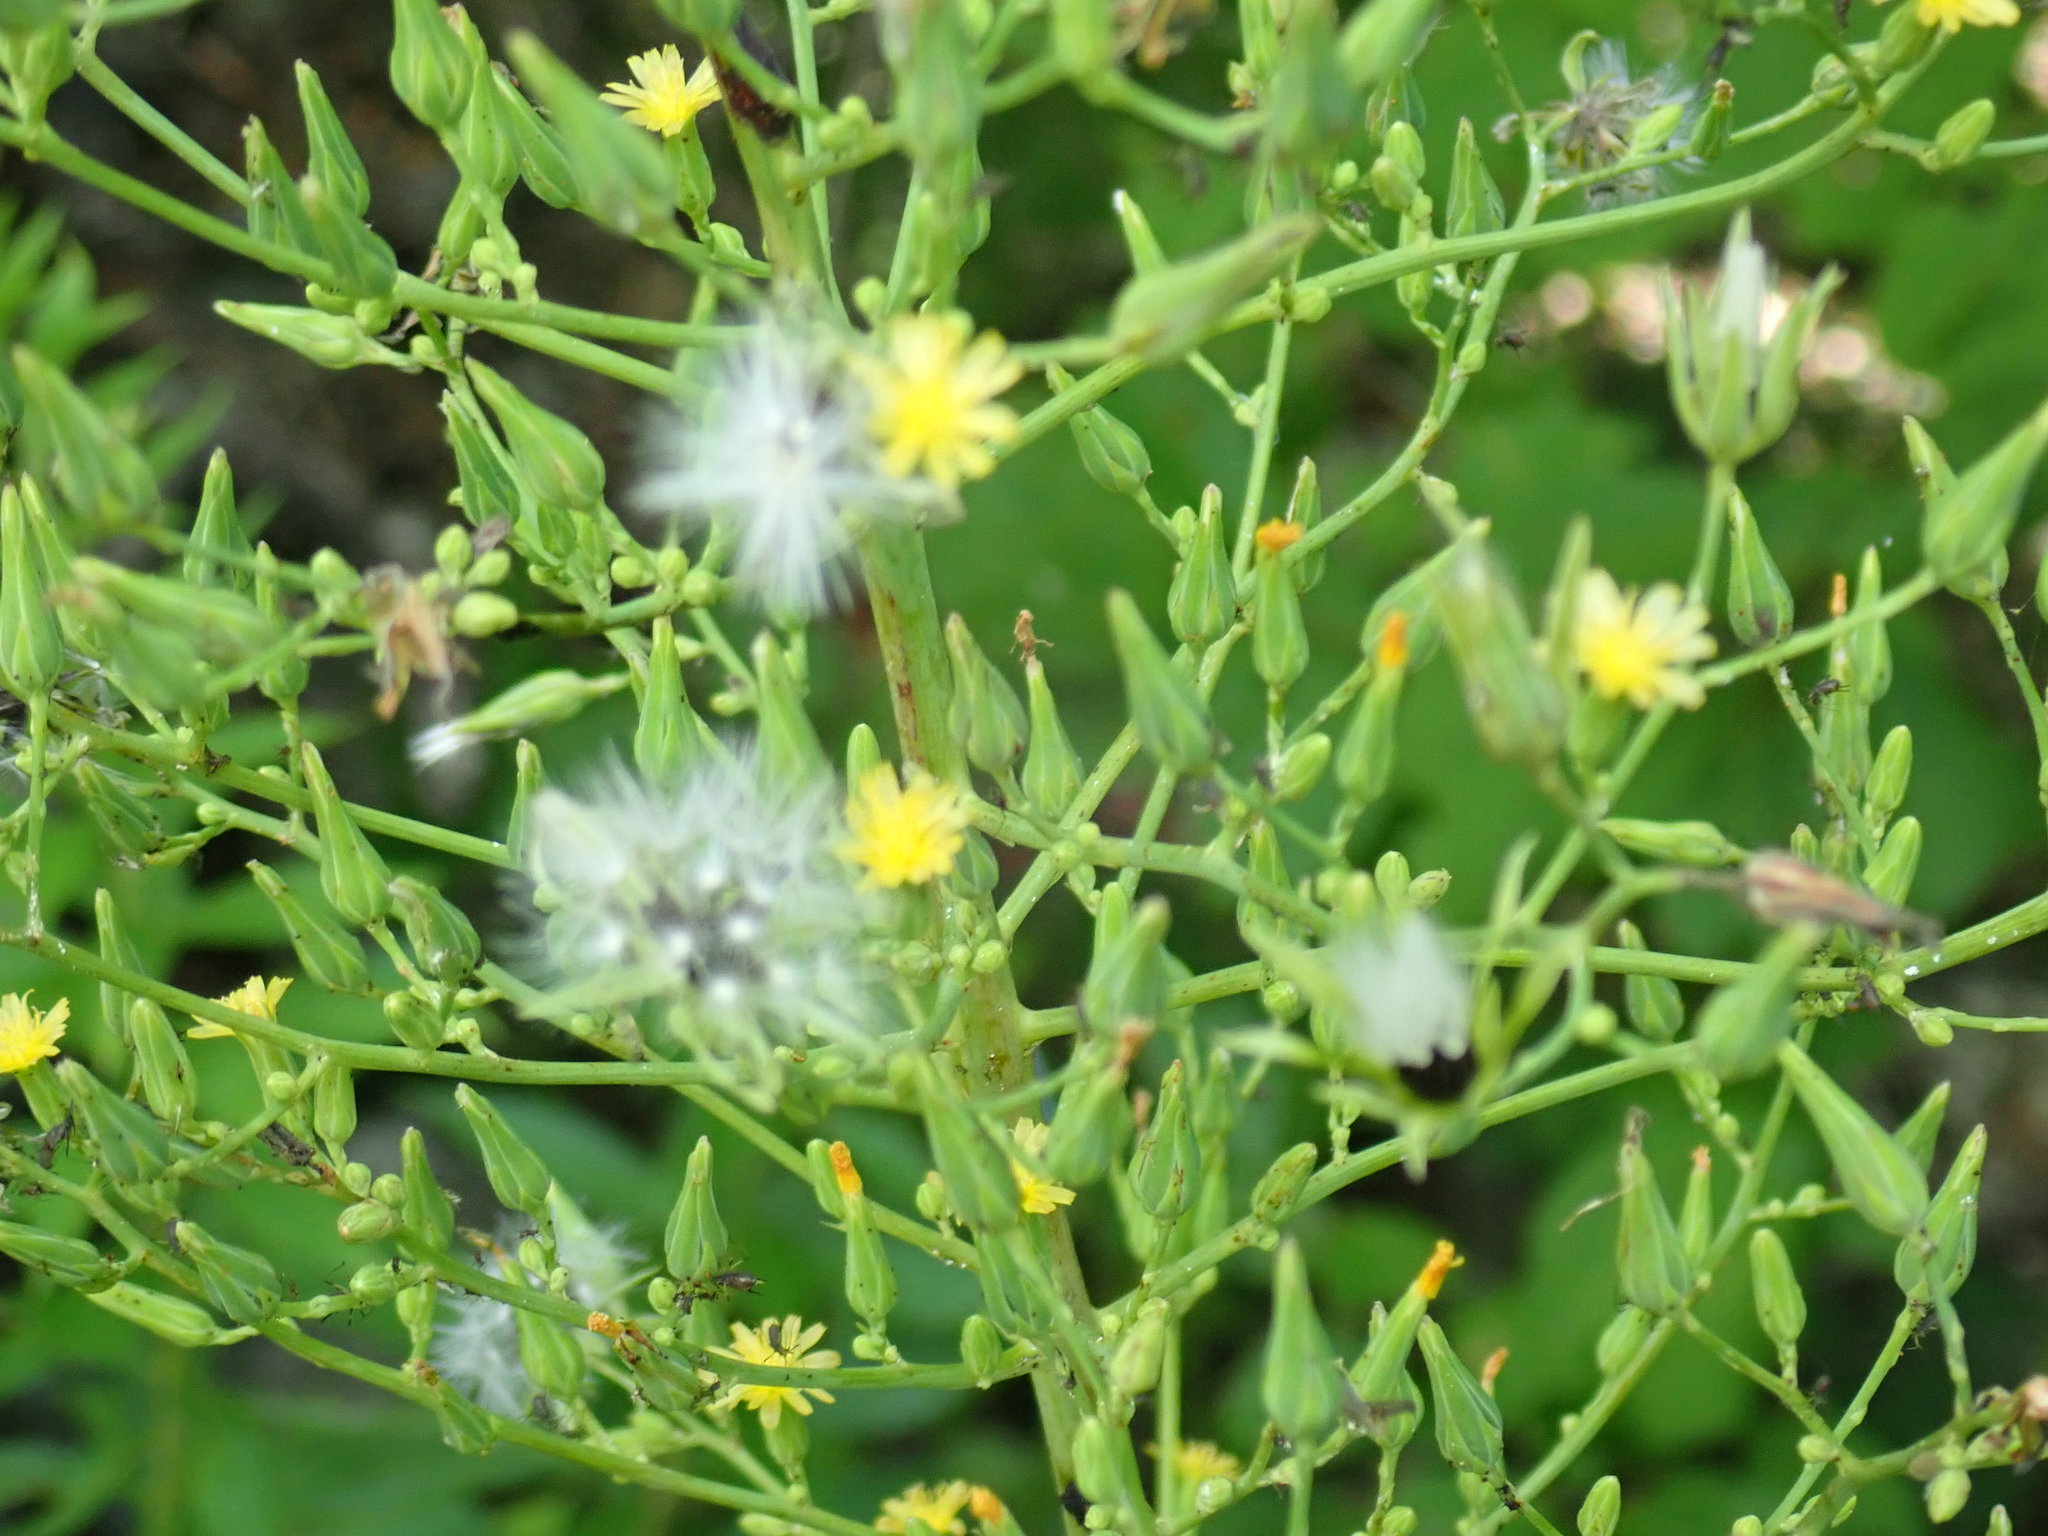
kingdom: Plantae
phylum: Tracheophyta
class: Magnoliopsida
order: Asterales
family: Asteraceae
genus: Lactuca
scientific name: Lactuca canadensis
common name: Canada lettuce
